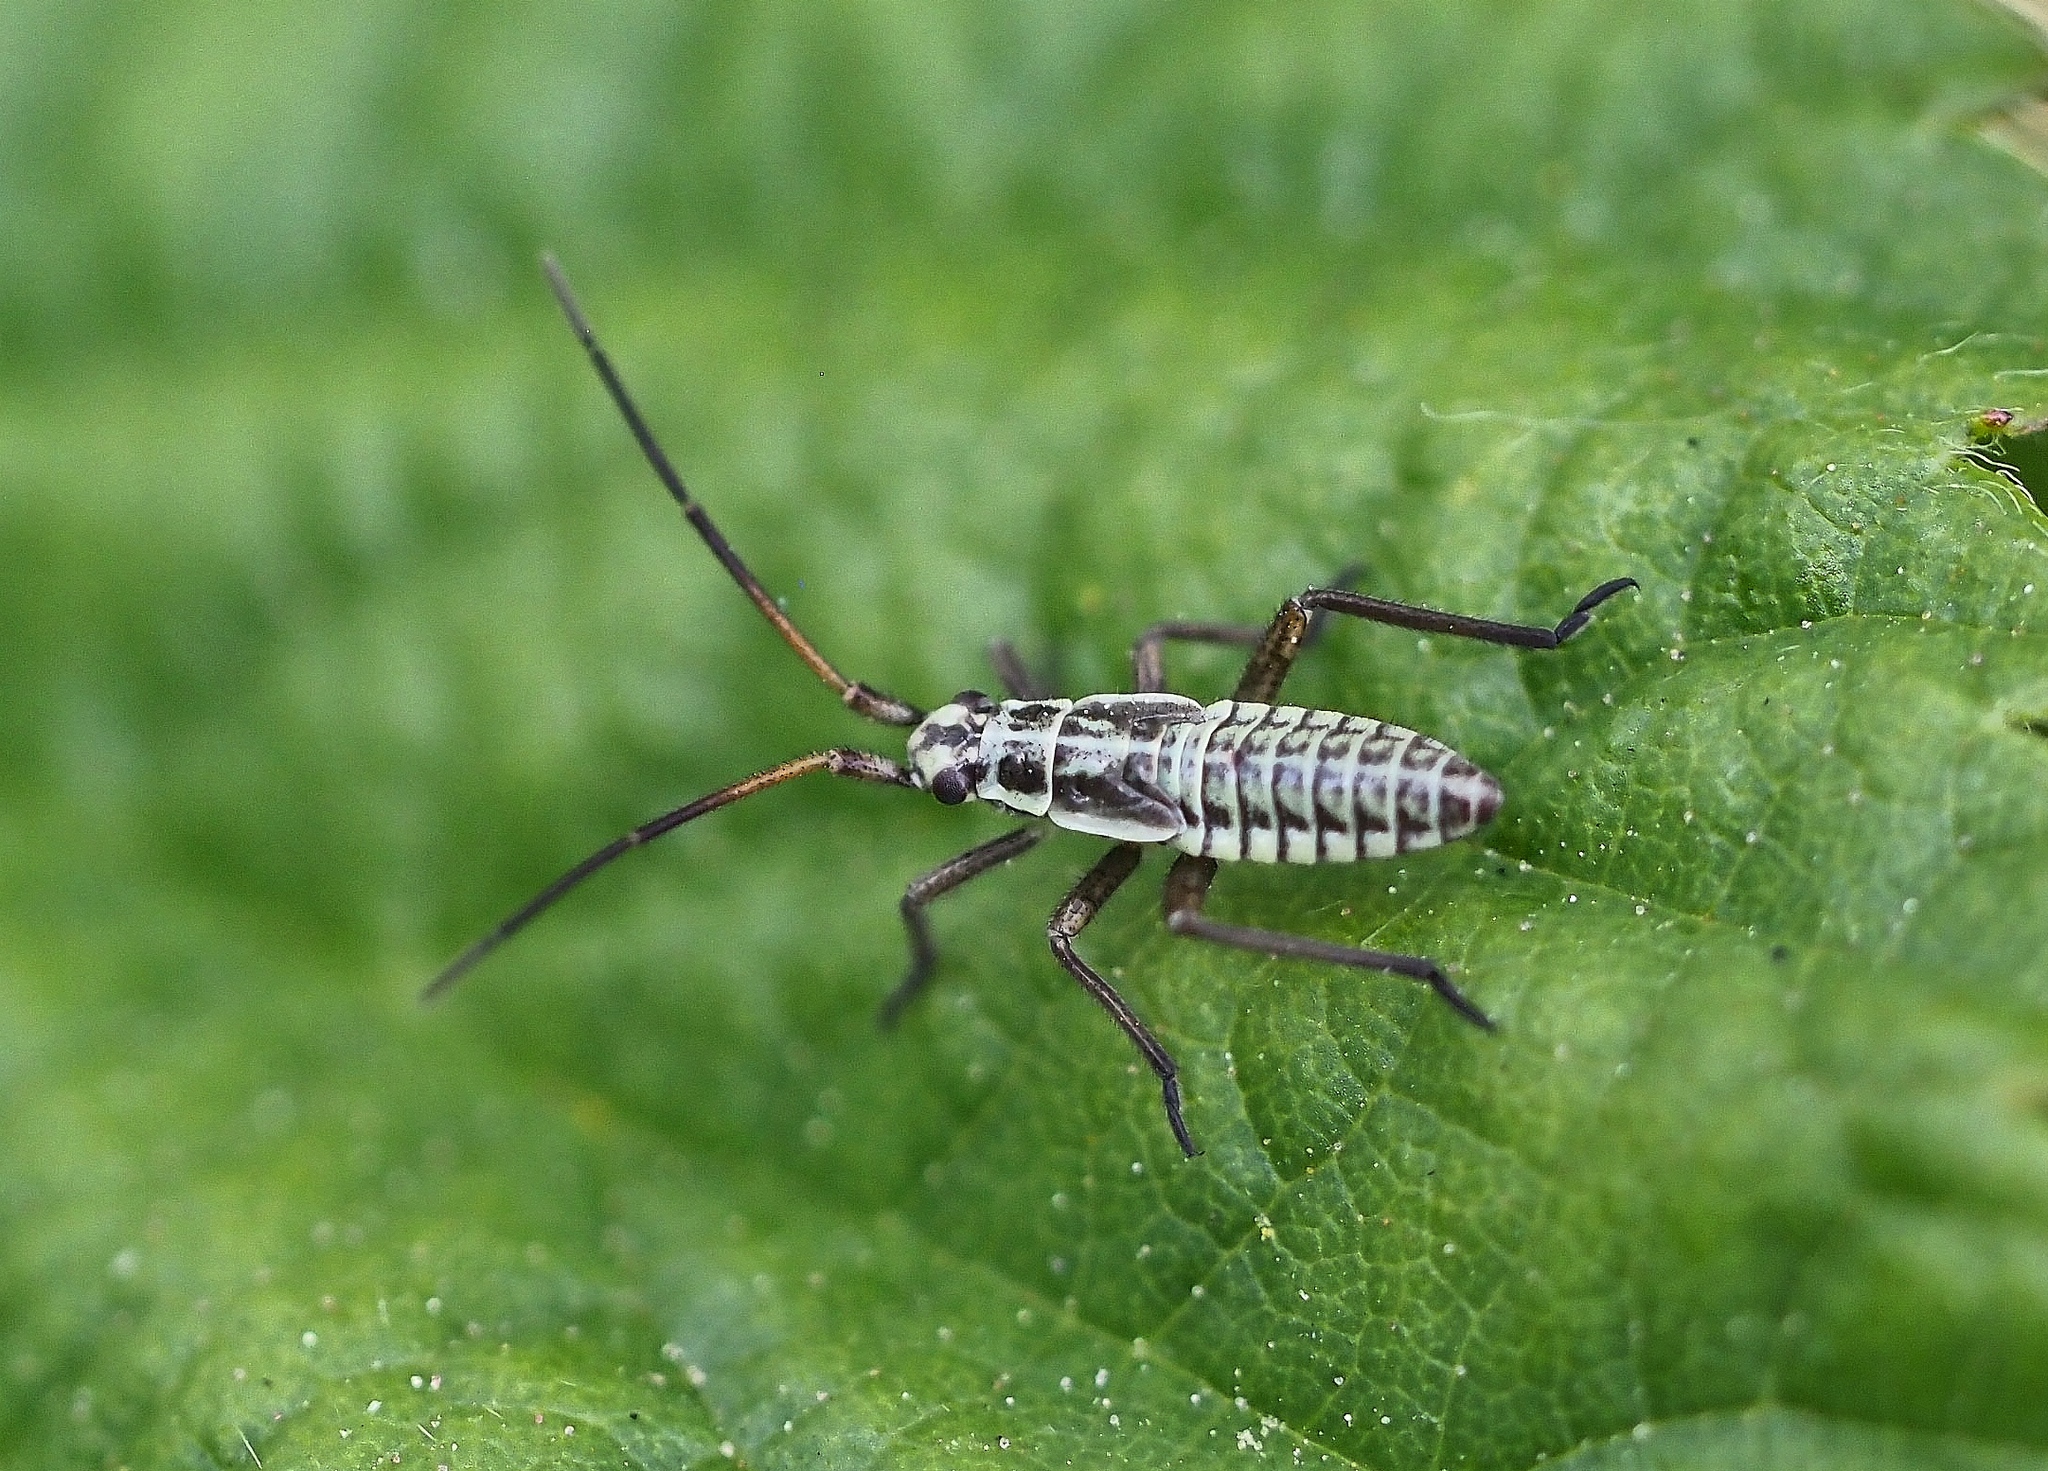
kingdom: Animalia
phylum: Arthropoda
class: Insecta
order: Hemiptera
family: Miridae
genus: Leptopterna
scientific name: Leptopterna dolabrata
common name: Meadow plant bug
